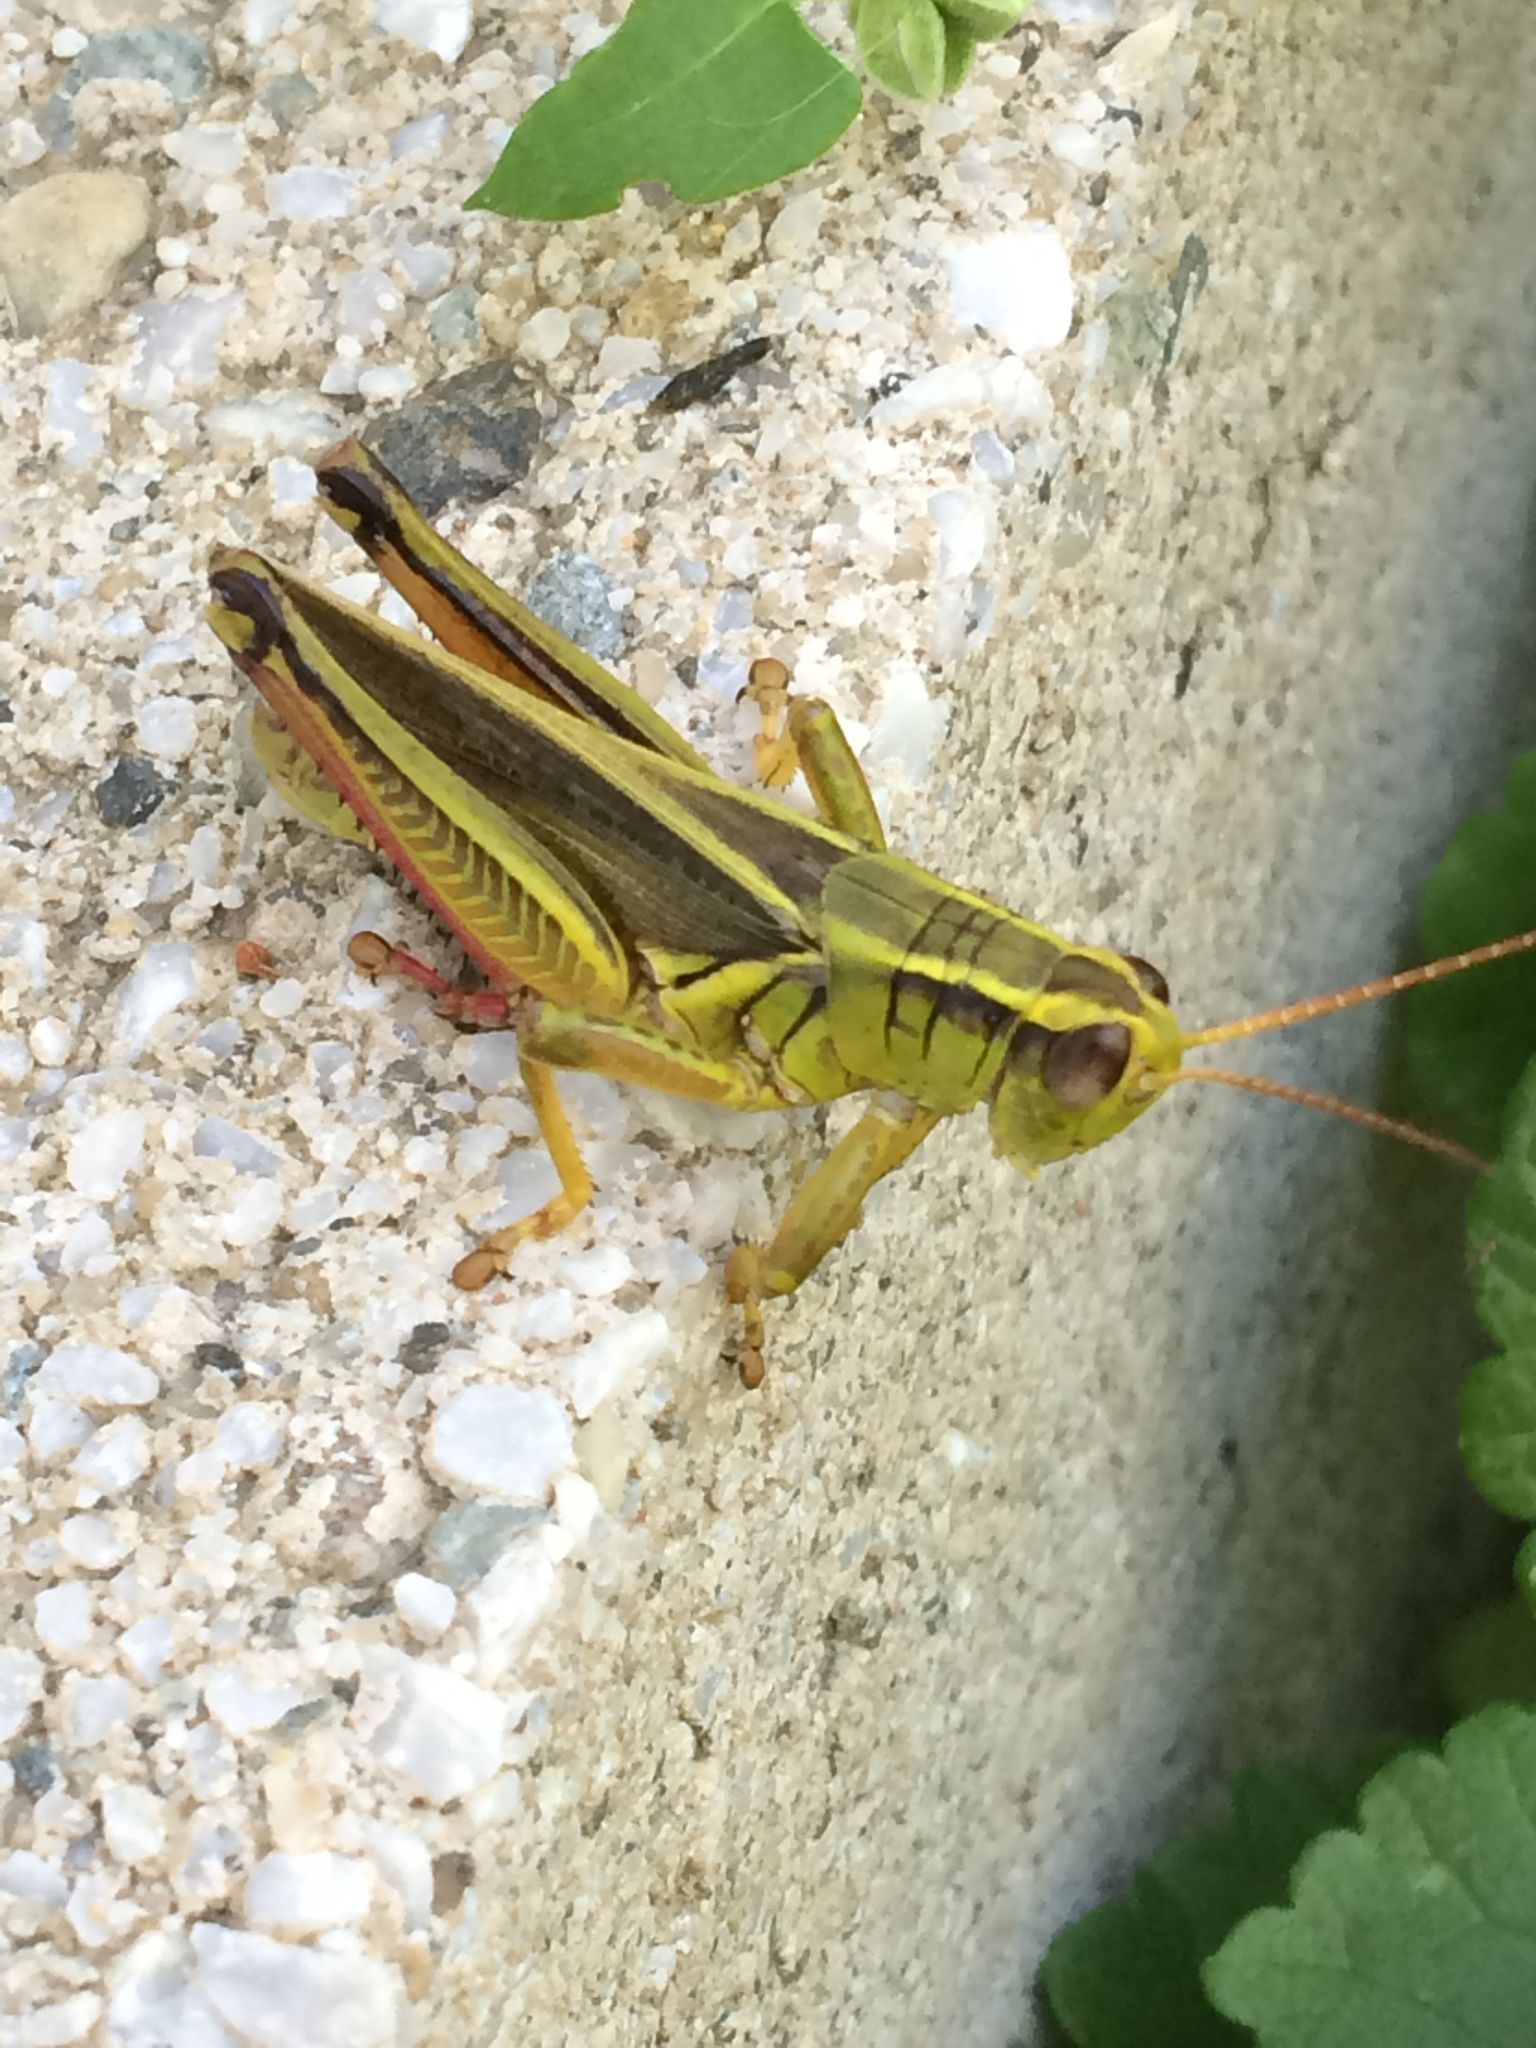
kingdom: Animalia
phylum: Arthropoda
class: Insecta
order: Orthoptera
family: Acrididae
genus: Melanoplus
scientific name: Melanoplus bivittatus
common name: Two-striped grasshopper
